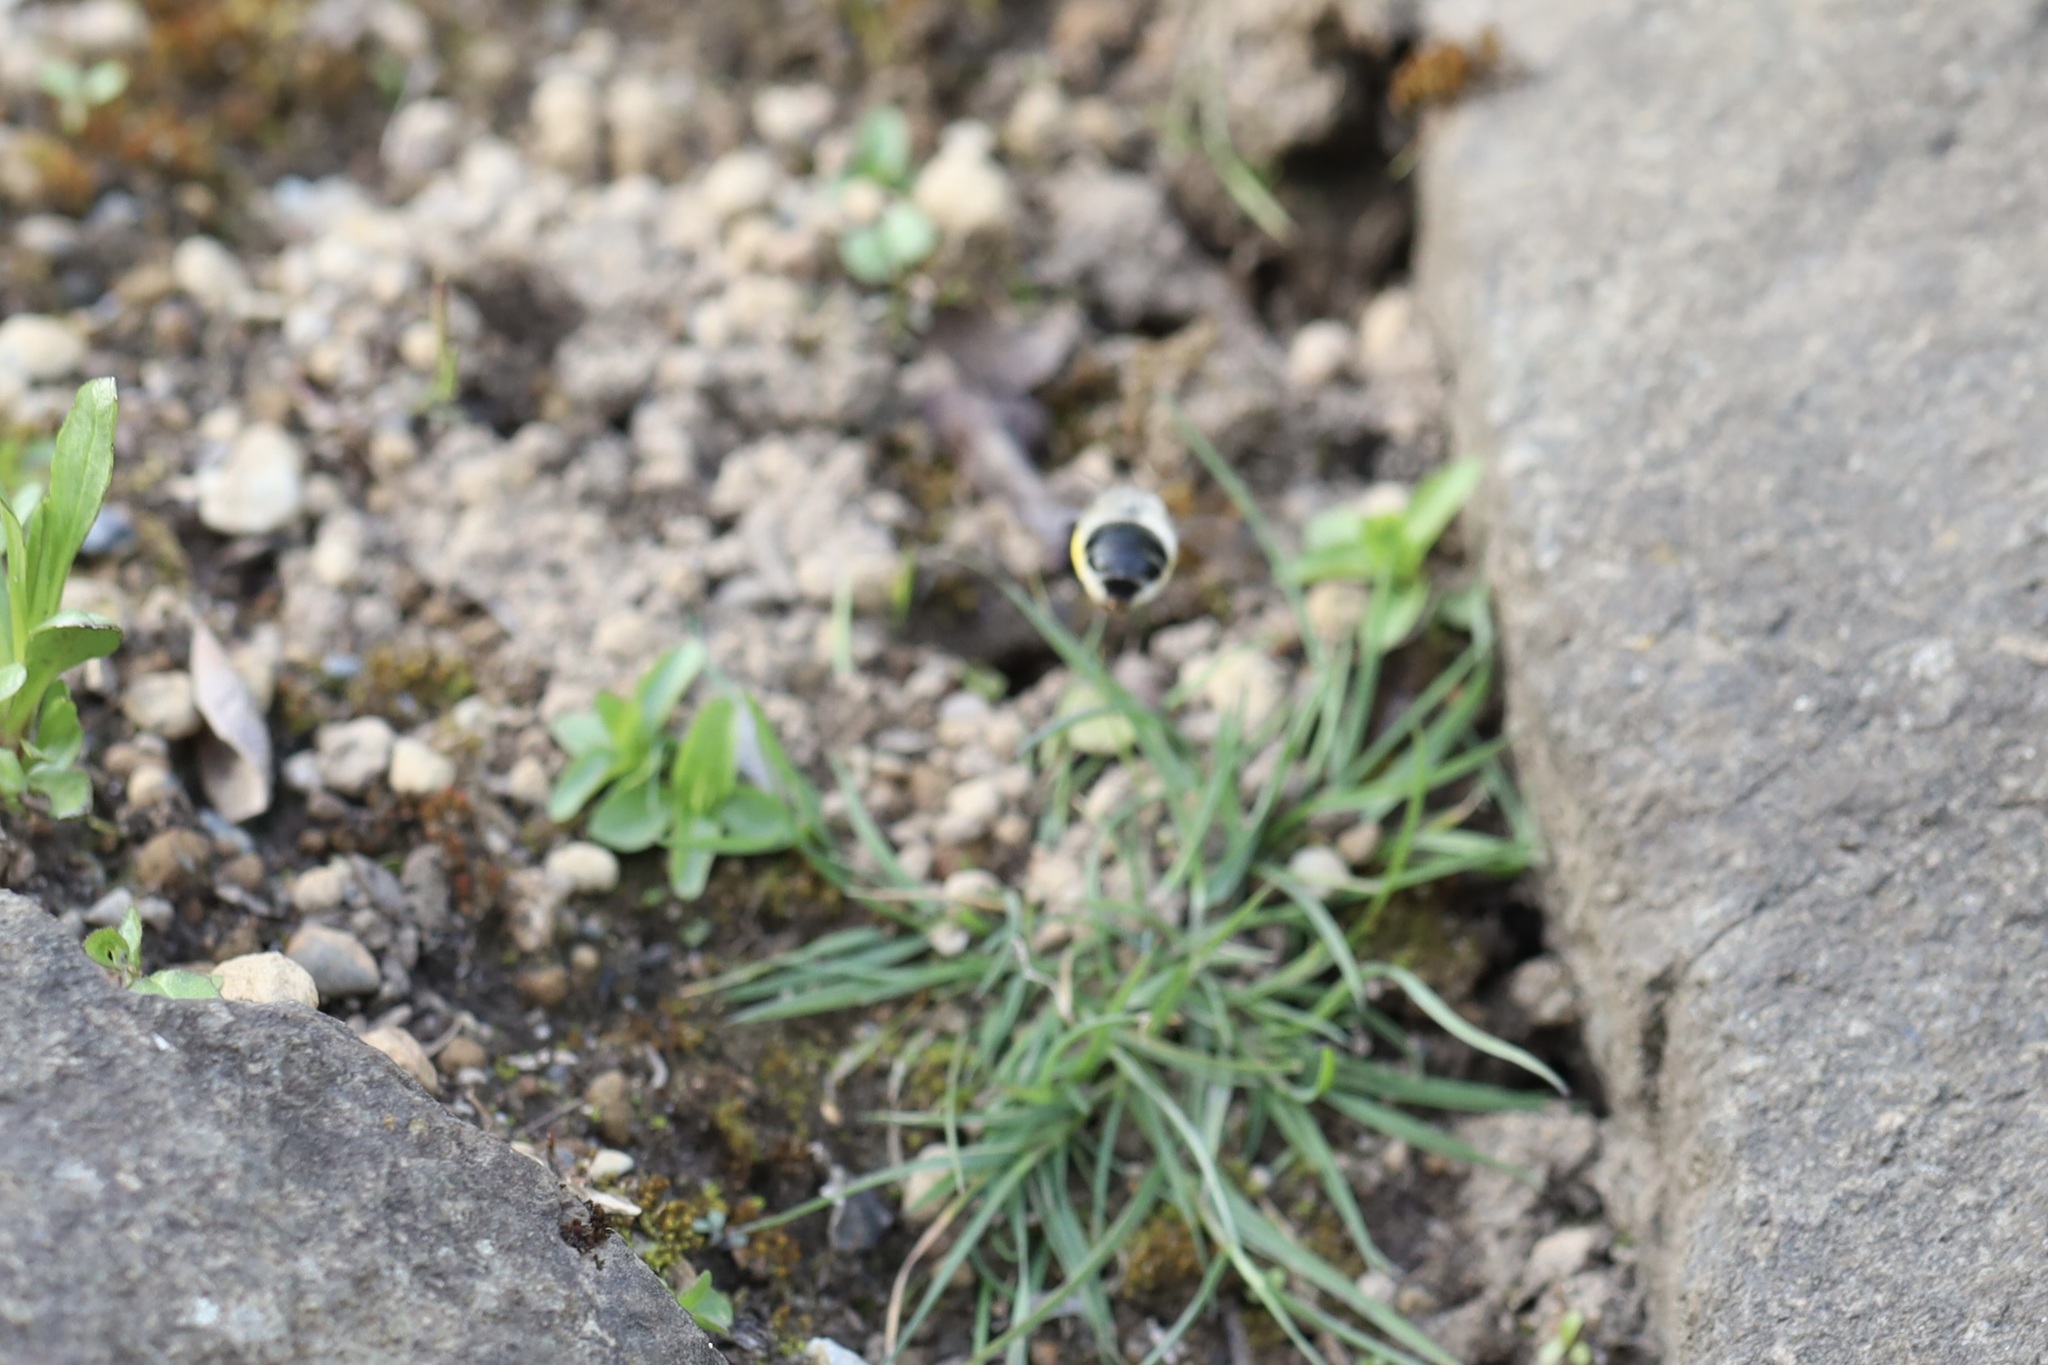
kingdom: Animalia
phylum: Arthropoda
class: Insecta
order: Hymenoptera
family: Apidae
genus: Anthophora
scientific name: Anthophora pacifica
